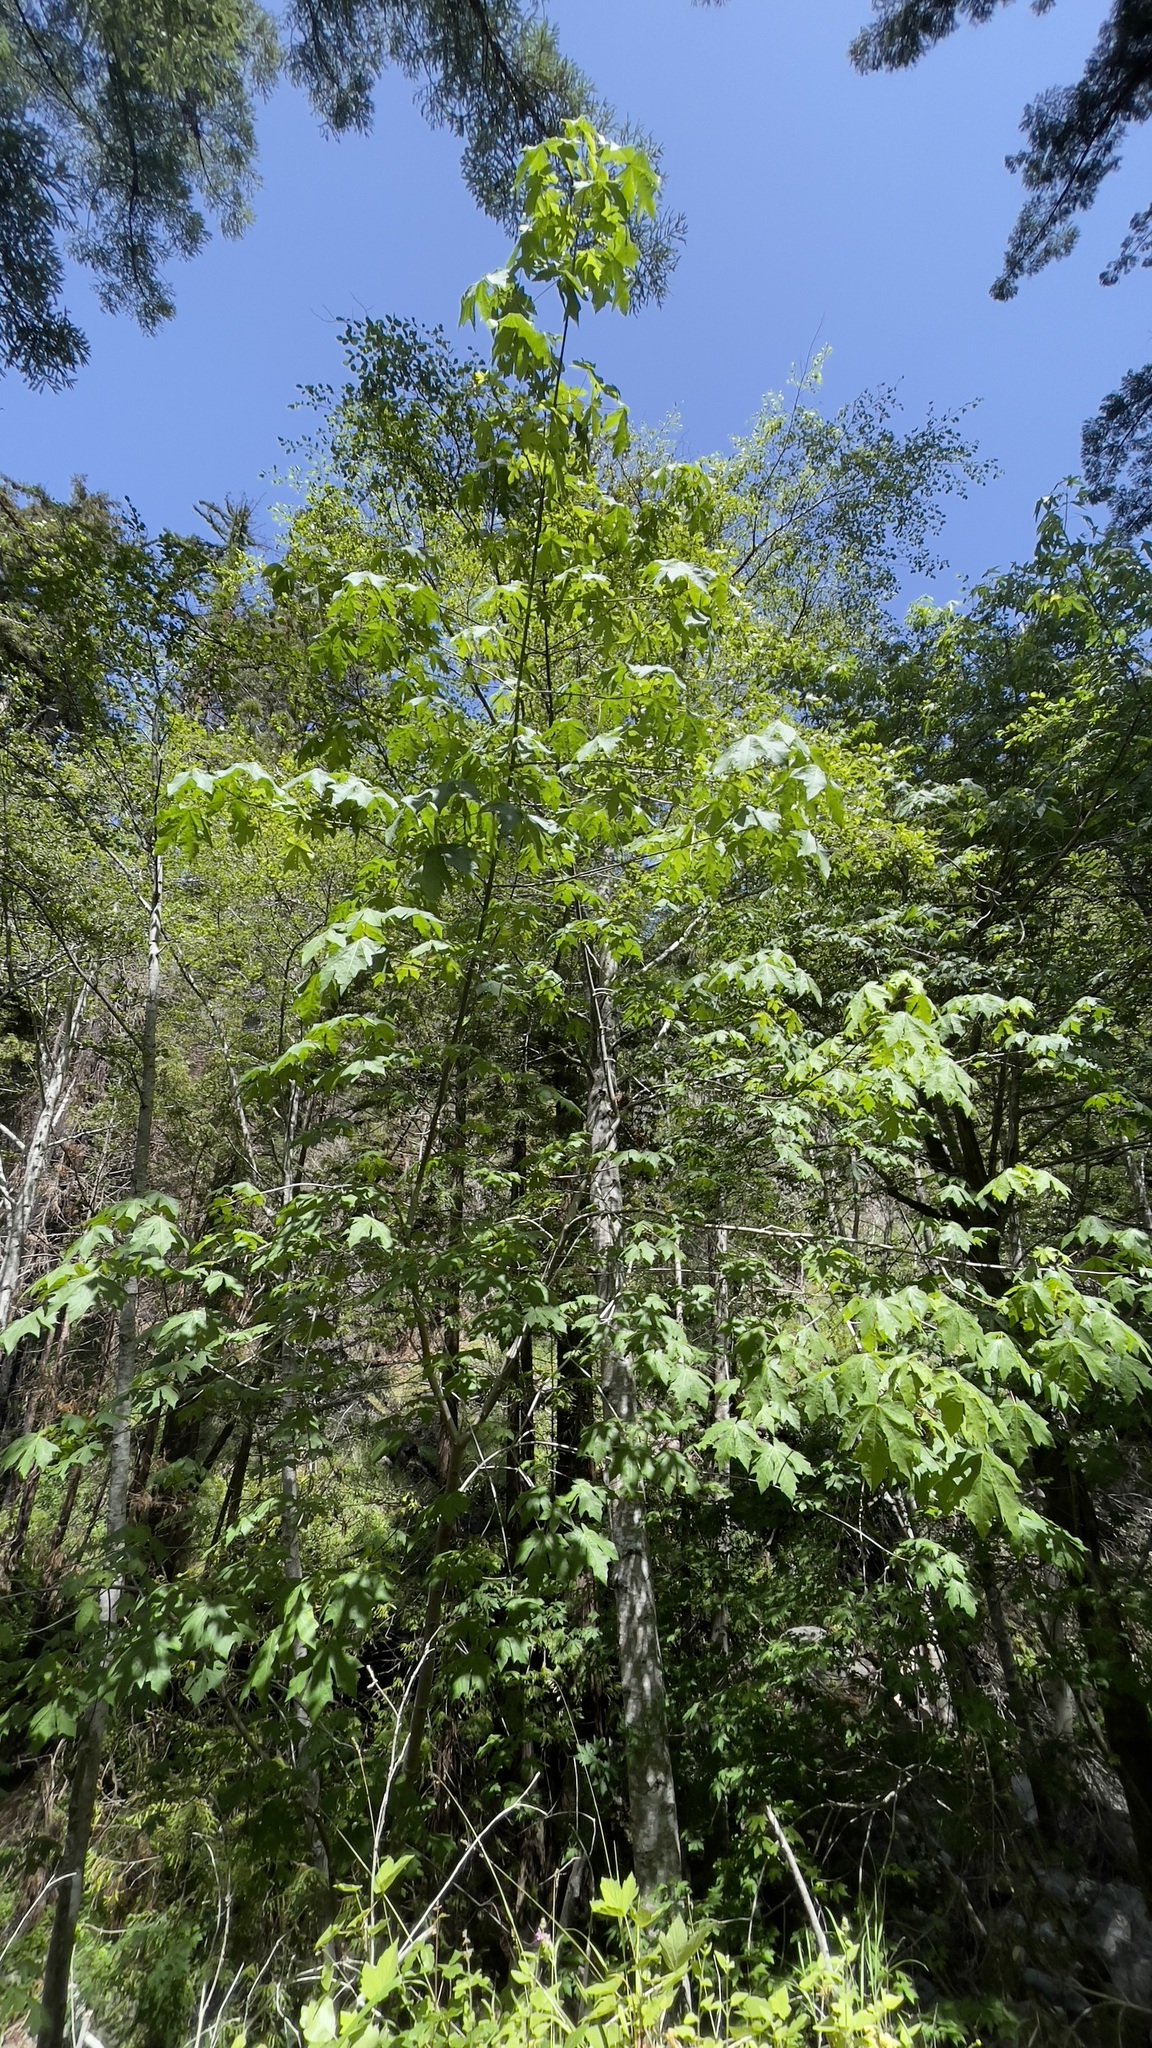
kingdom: Plantae
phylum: Tracheophyta
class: Magnoliopsida
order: Sapindales
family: Sapindaceae
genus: Acer
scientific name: Acer macrophyllum
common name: Oregon maple
